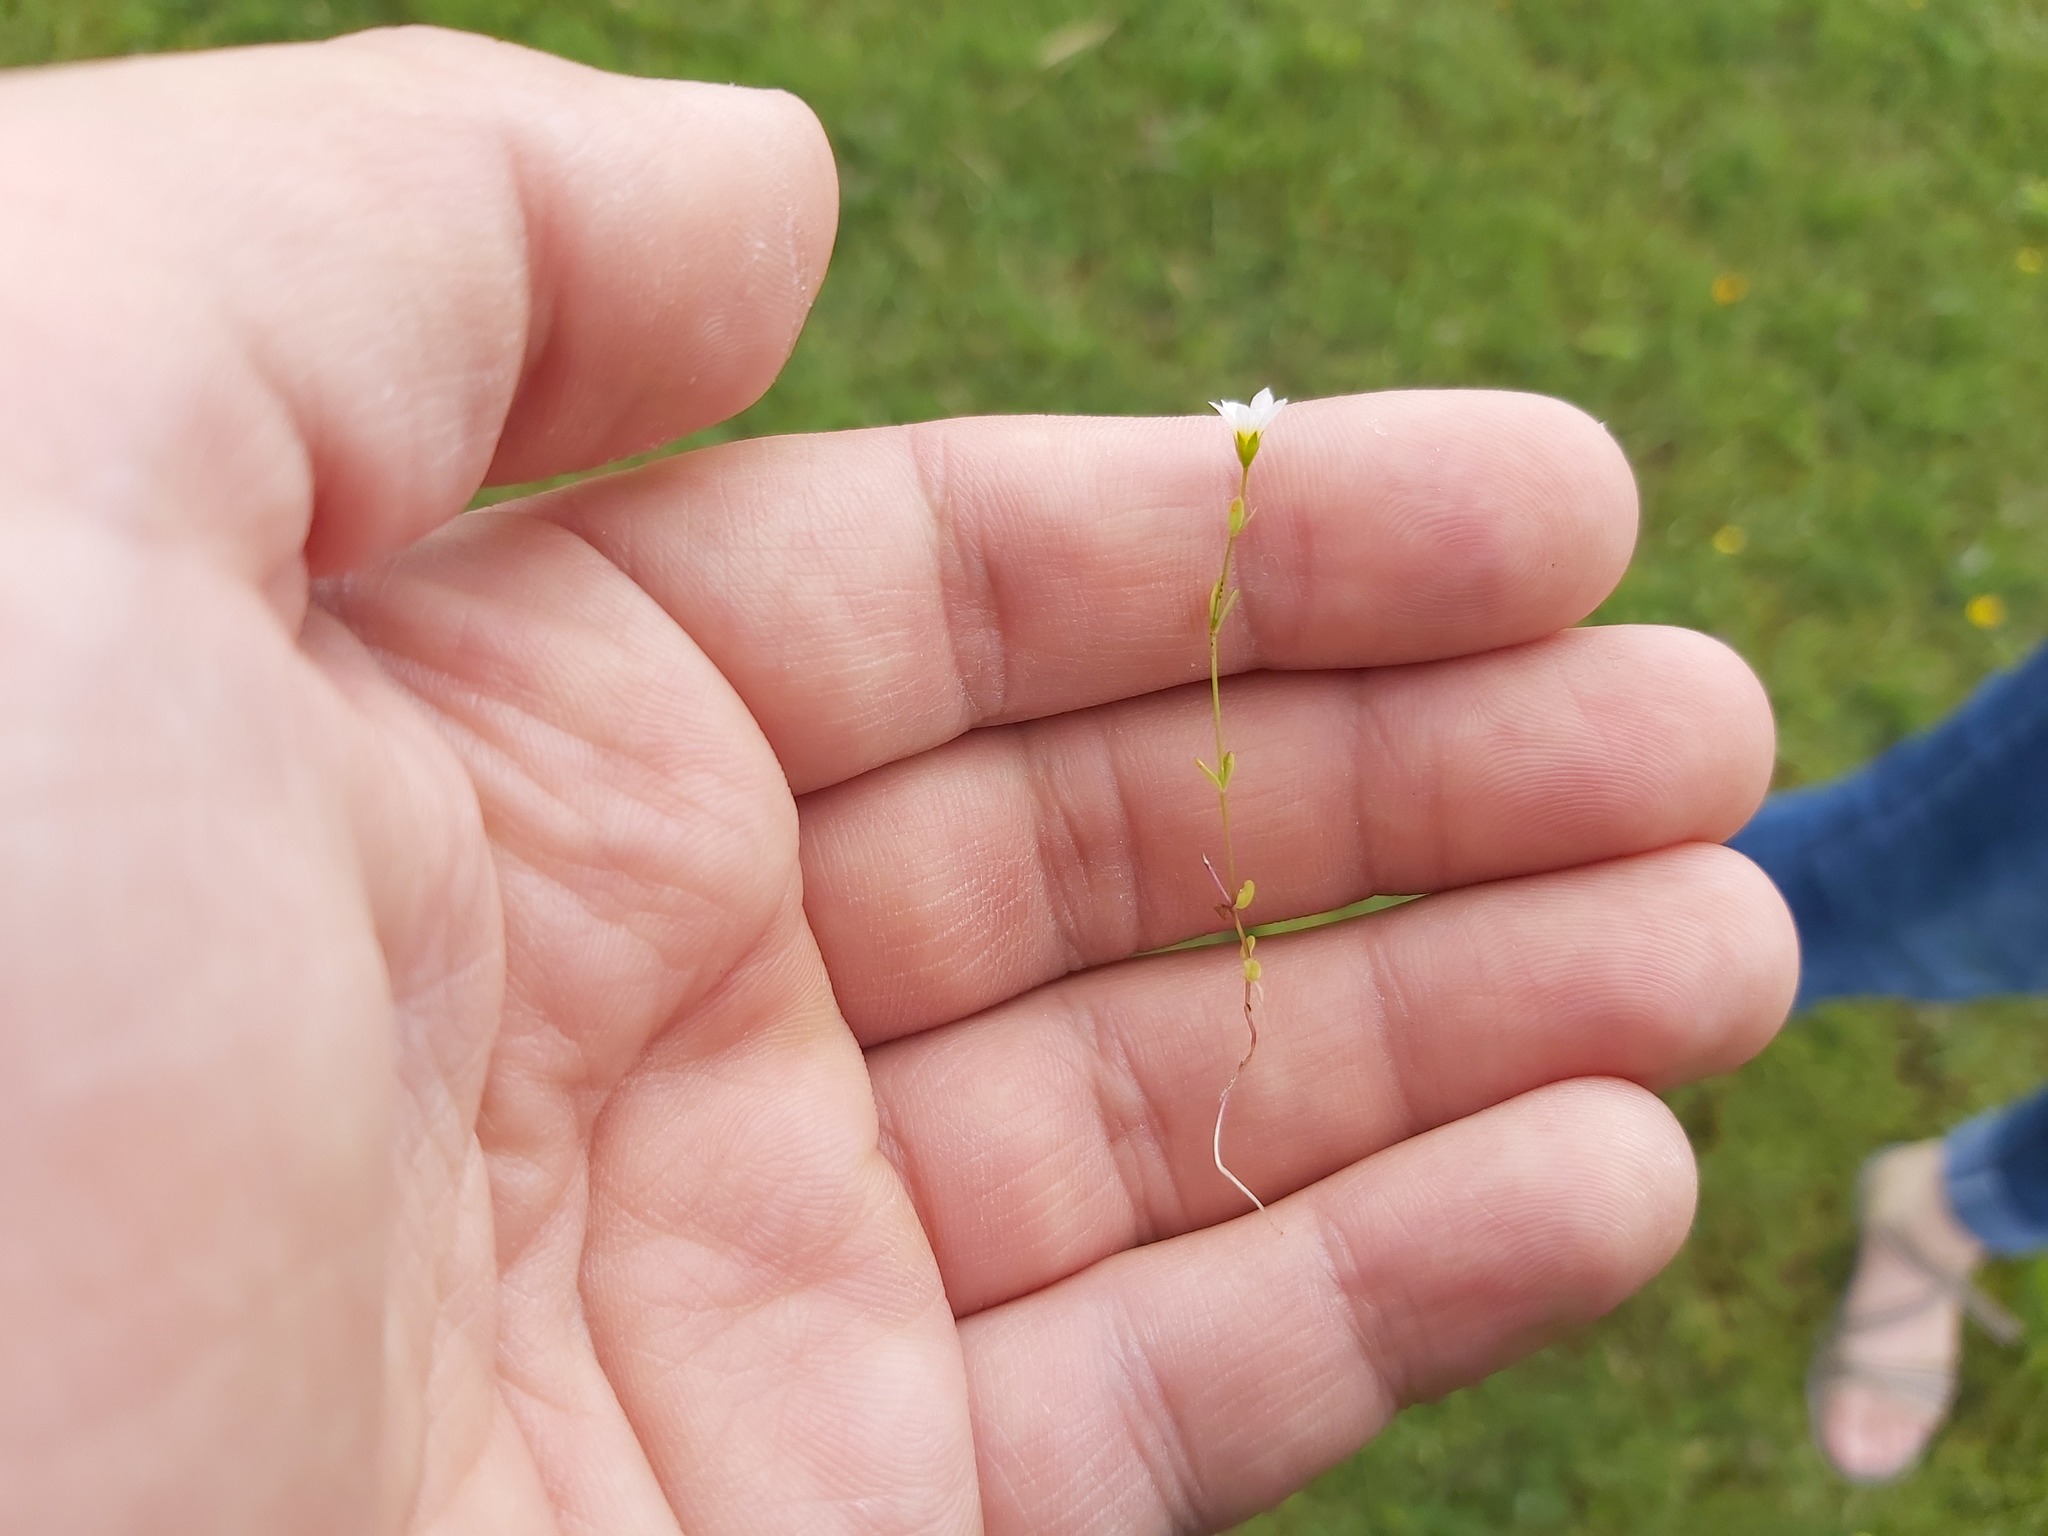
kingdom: Plantae
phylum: Tracheophyta
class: Magnoliopsida
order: Malpighiales
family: Linaceae
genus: Linum
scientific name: Linum catharticum
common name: Fairy flax
